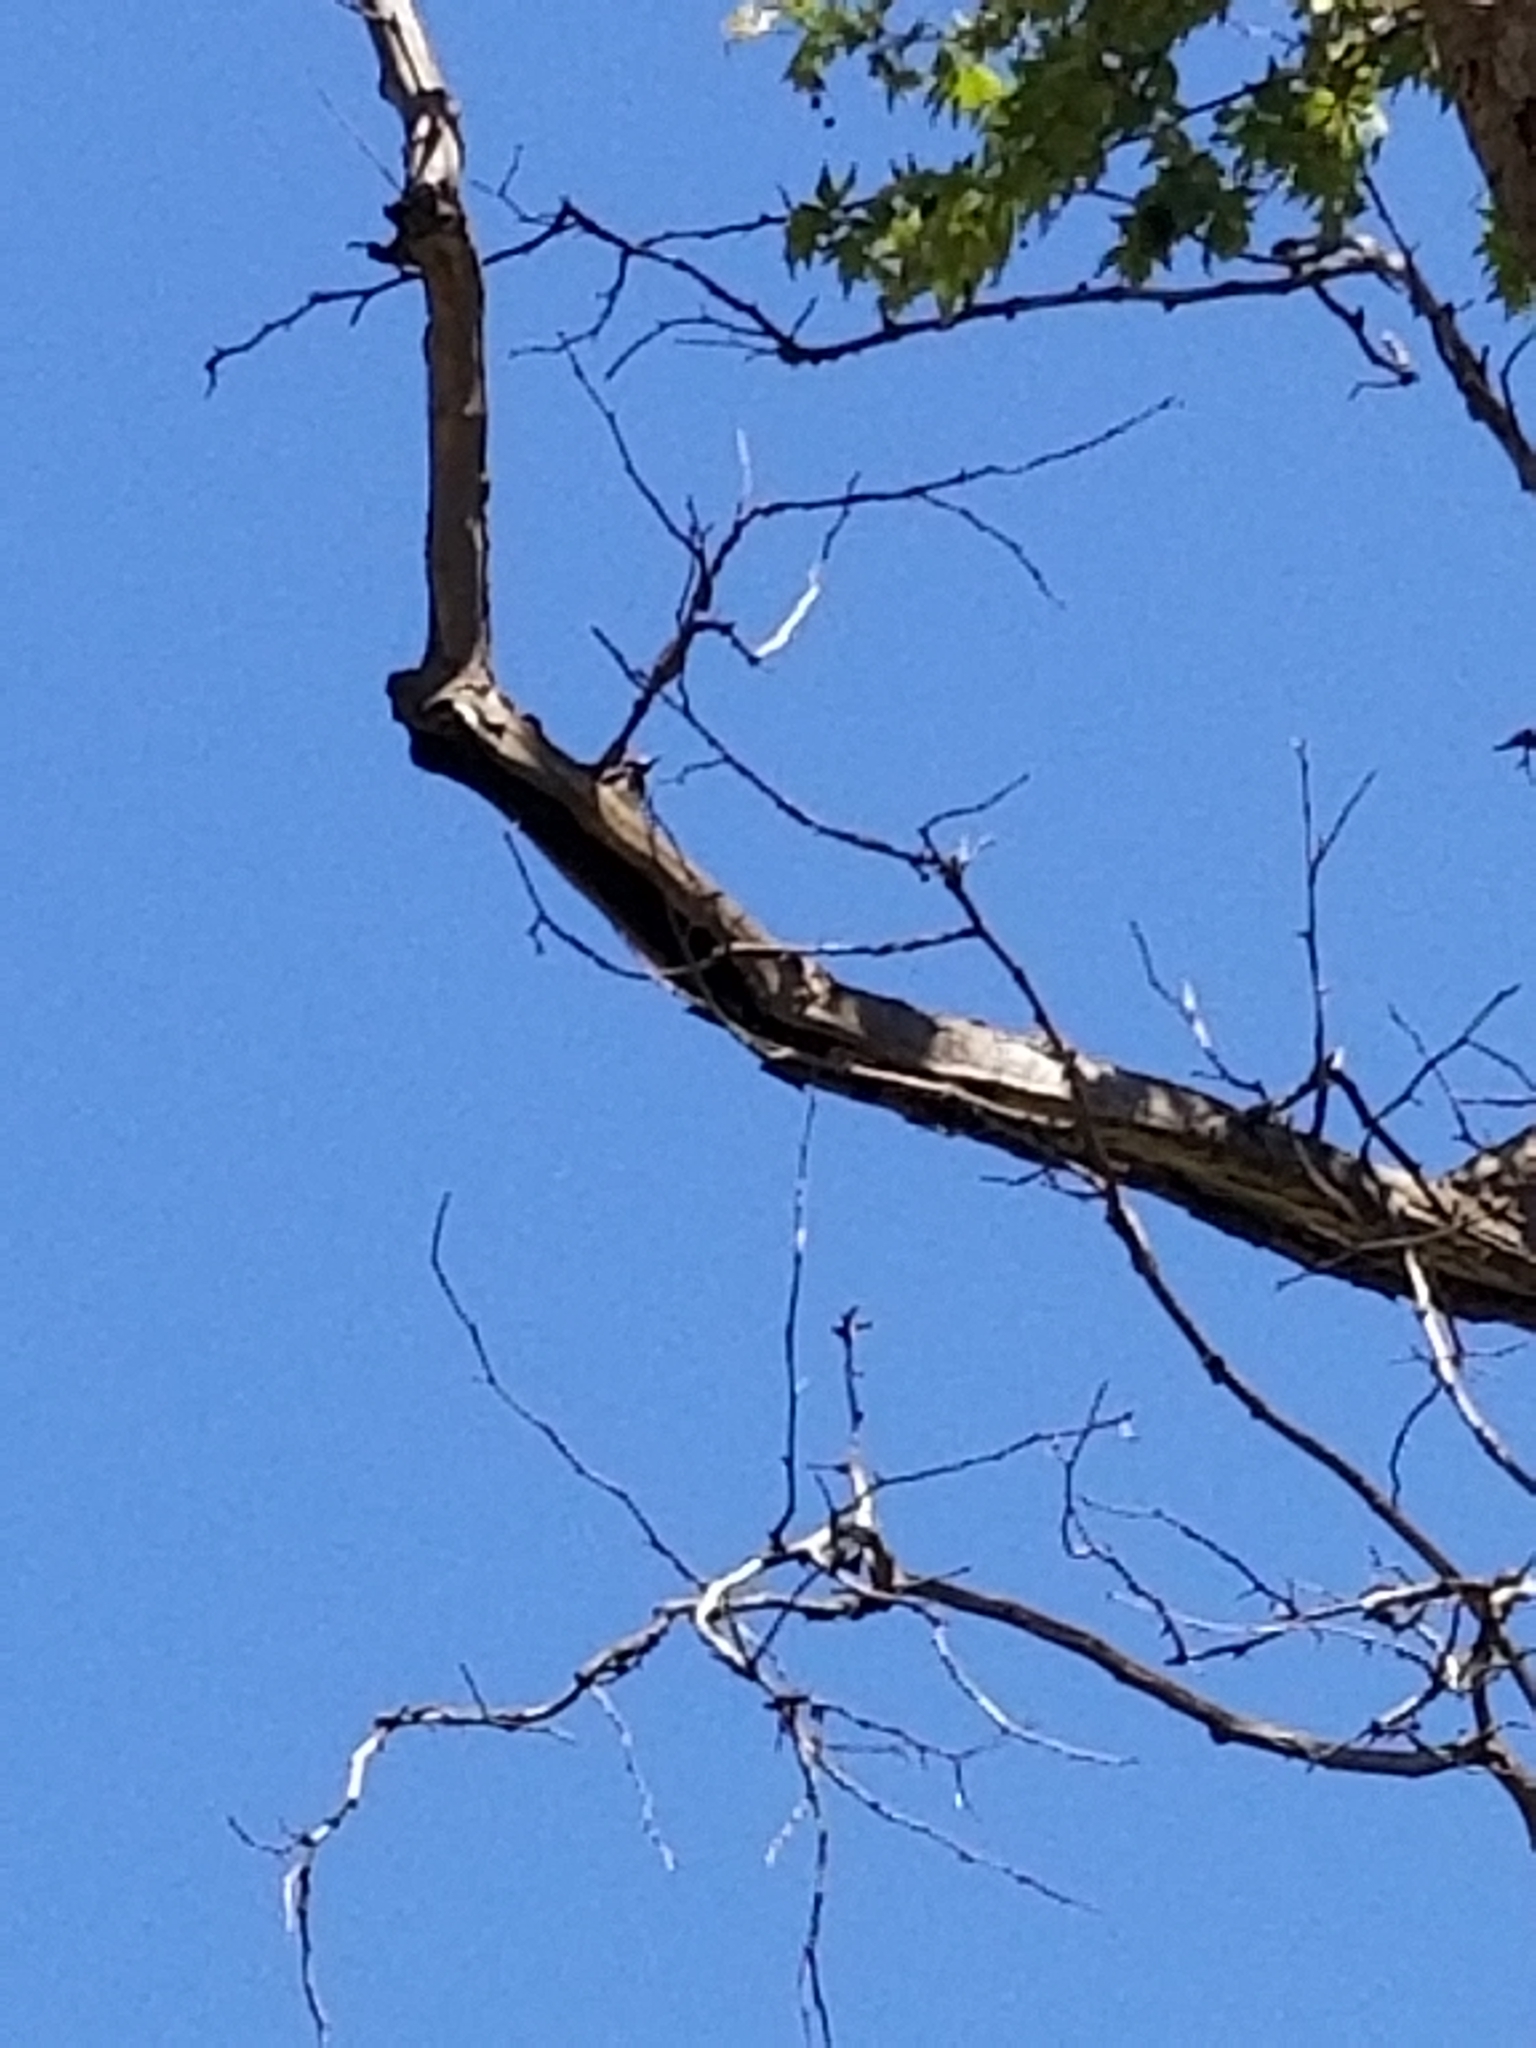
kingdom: Animalia
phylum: Chordata
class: Aves
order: Piciformes
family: Picidae
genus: Melanerpes
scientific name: Melanerpes formicivorus
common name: Acorn woodpecker
